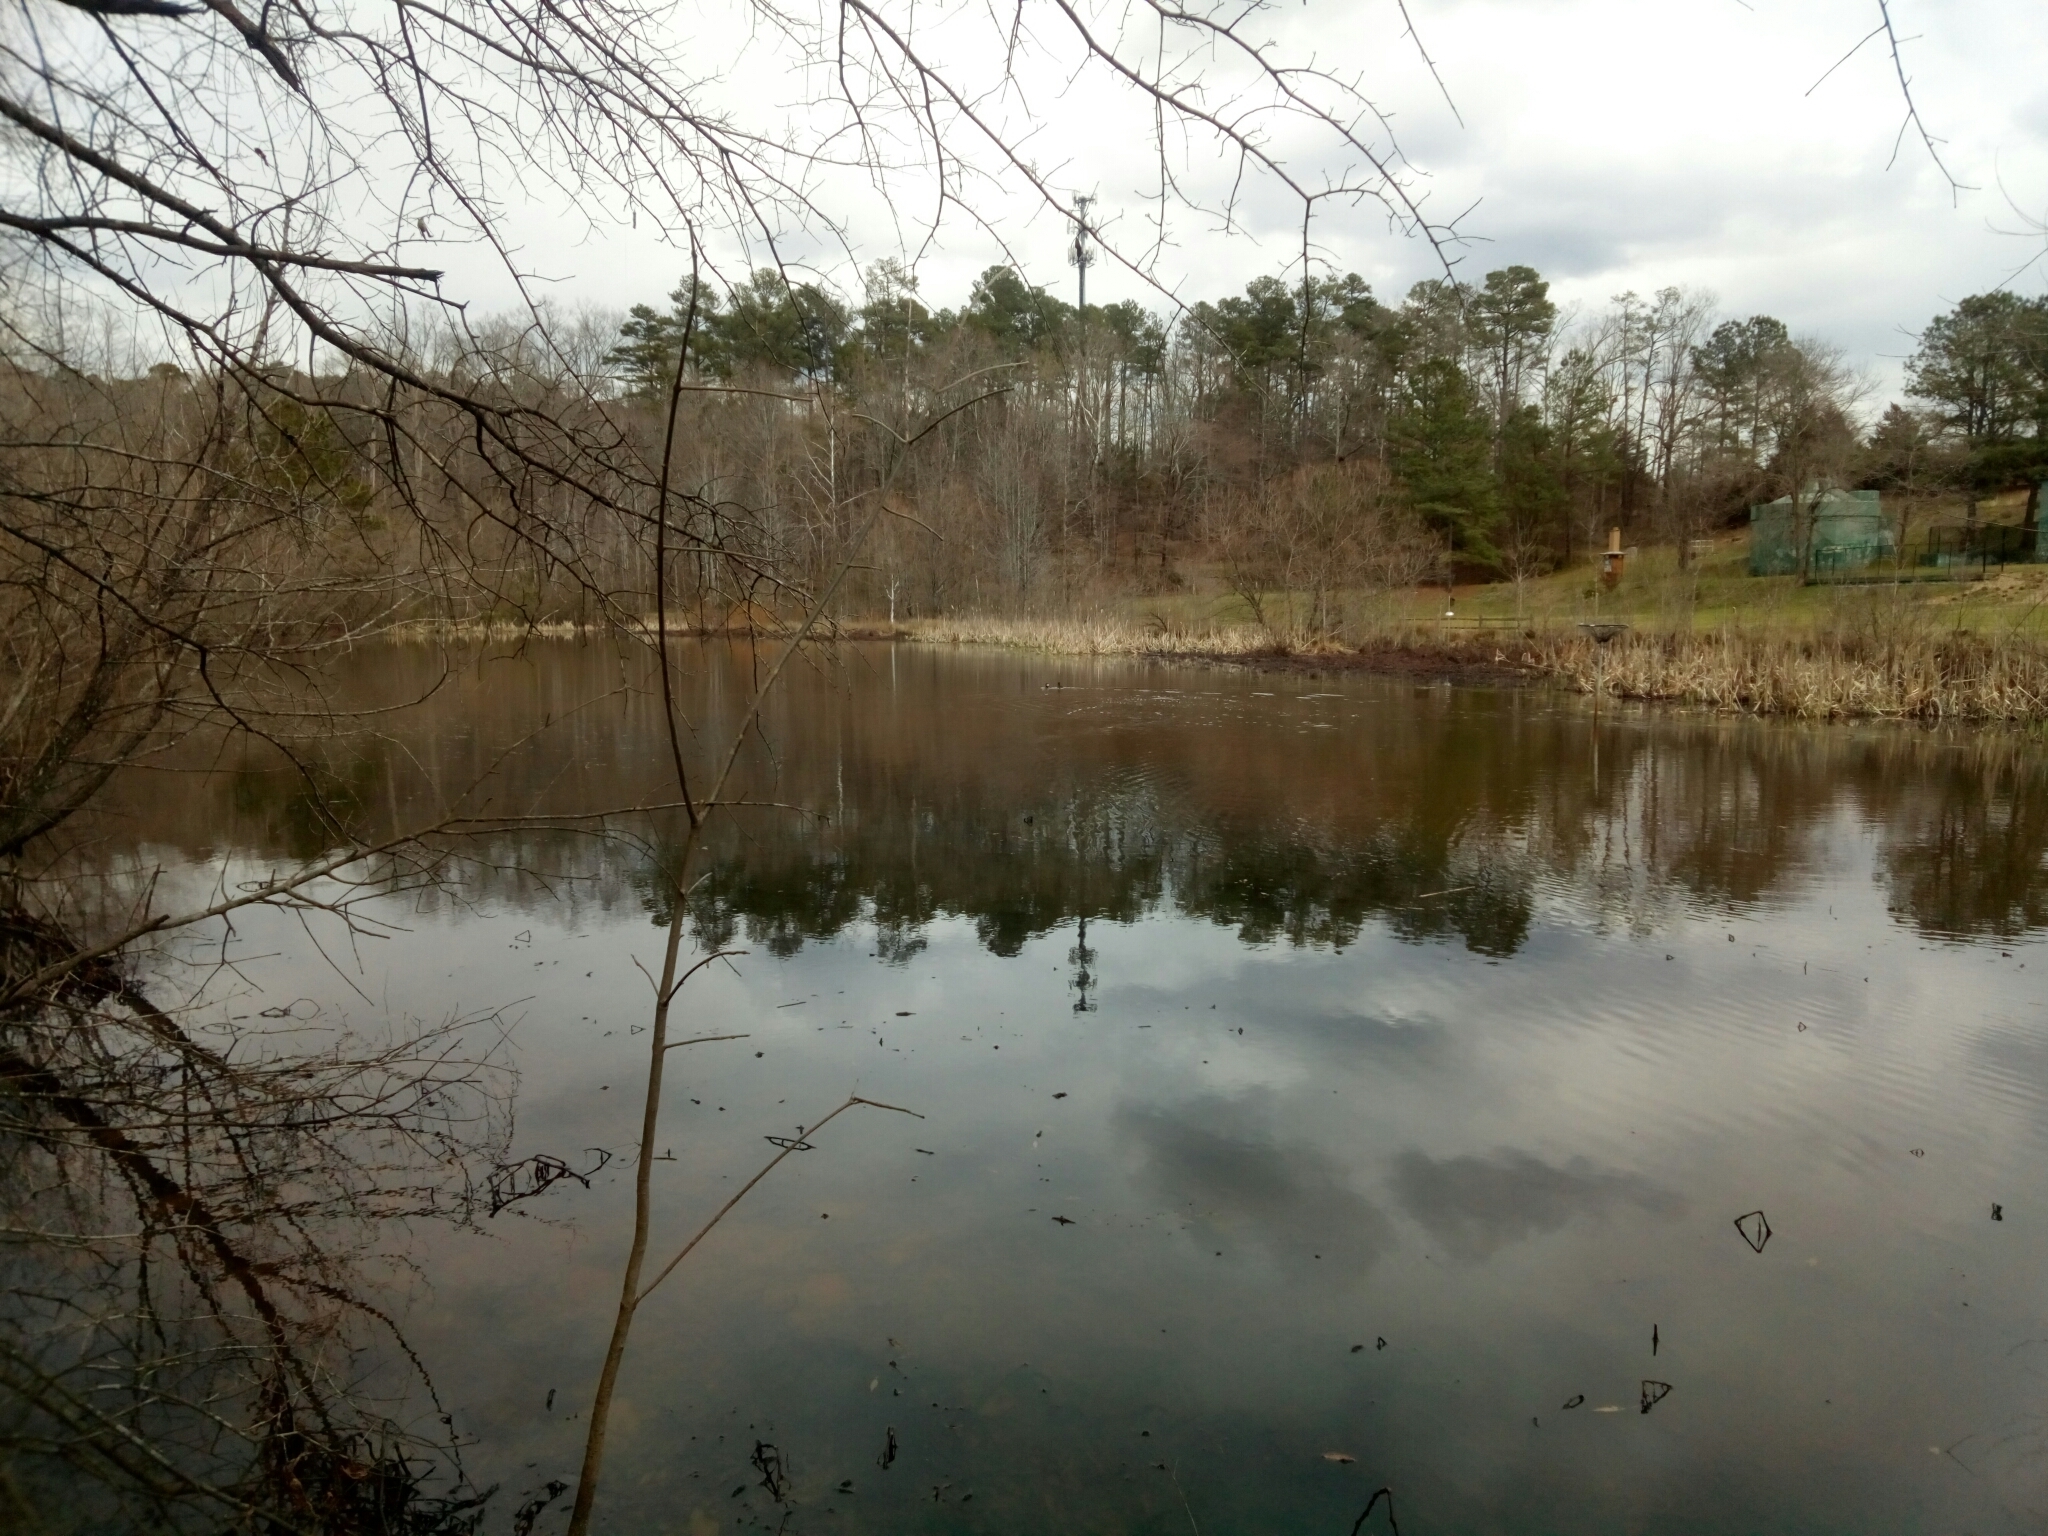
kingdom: Animalia
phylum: Chordata
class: Aves
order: Anseriformes
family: Anatidae
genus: Lophodytes
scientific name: Lophodytes cucullatus
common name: Hooded merganser
